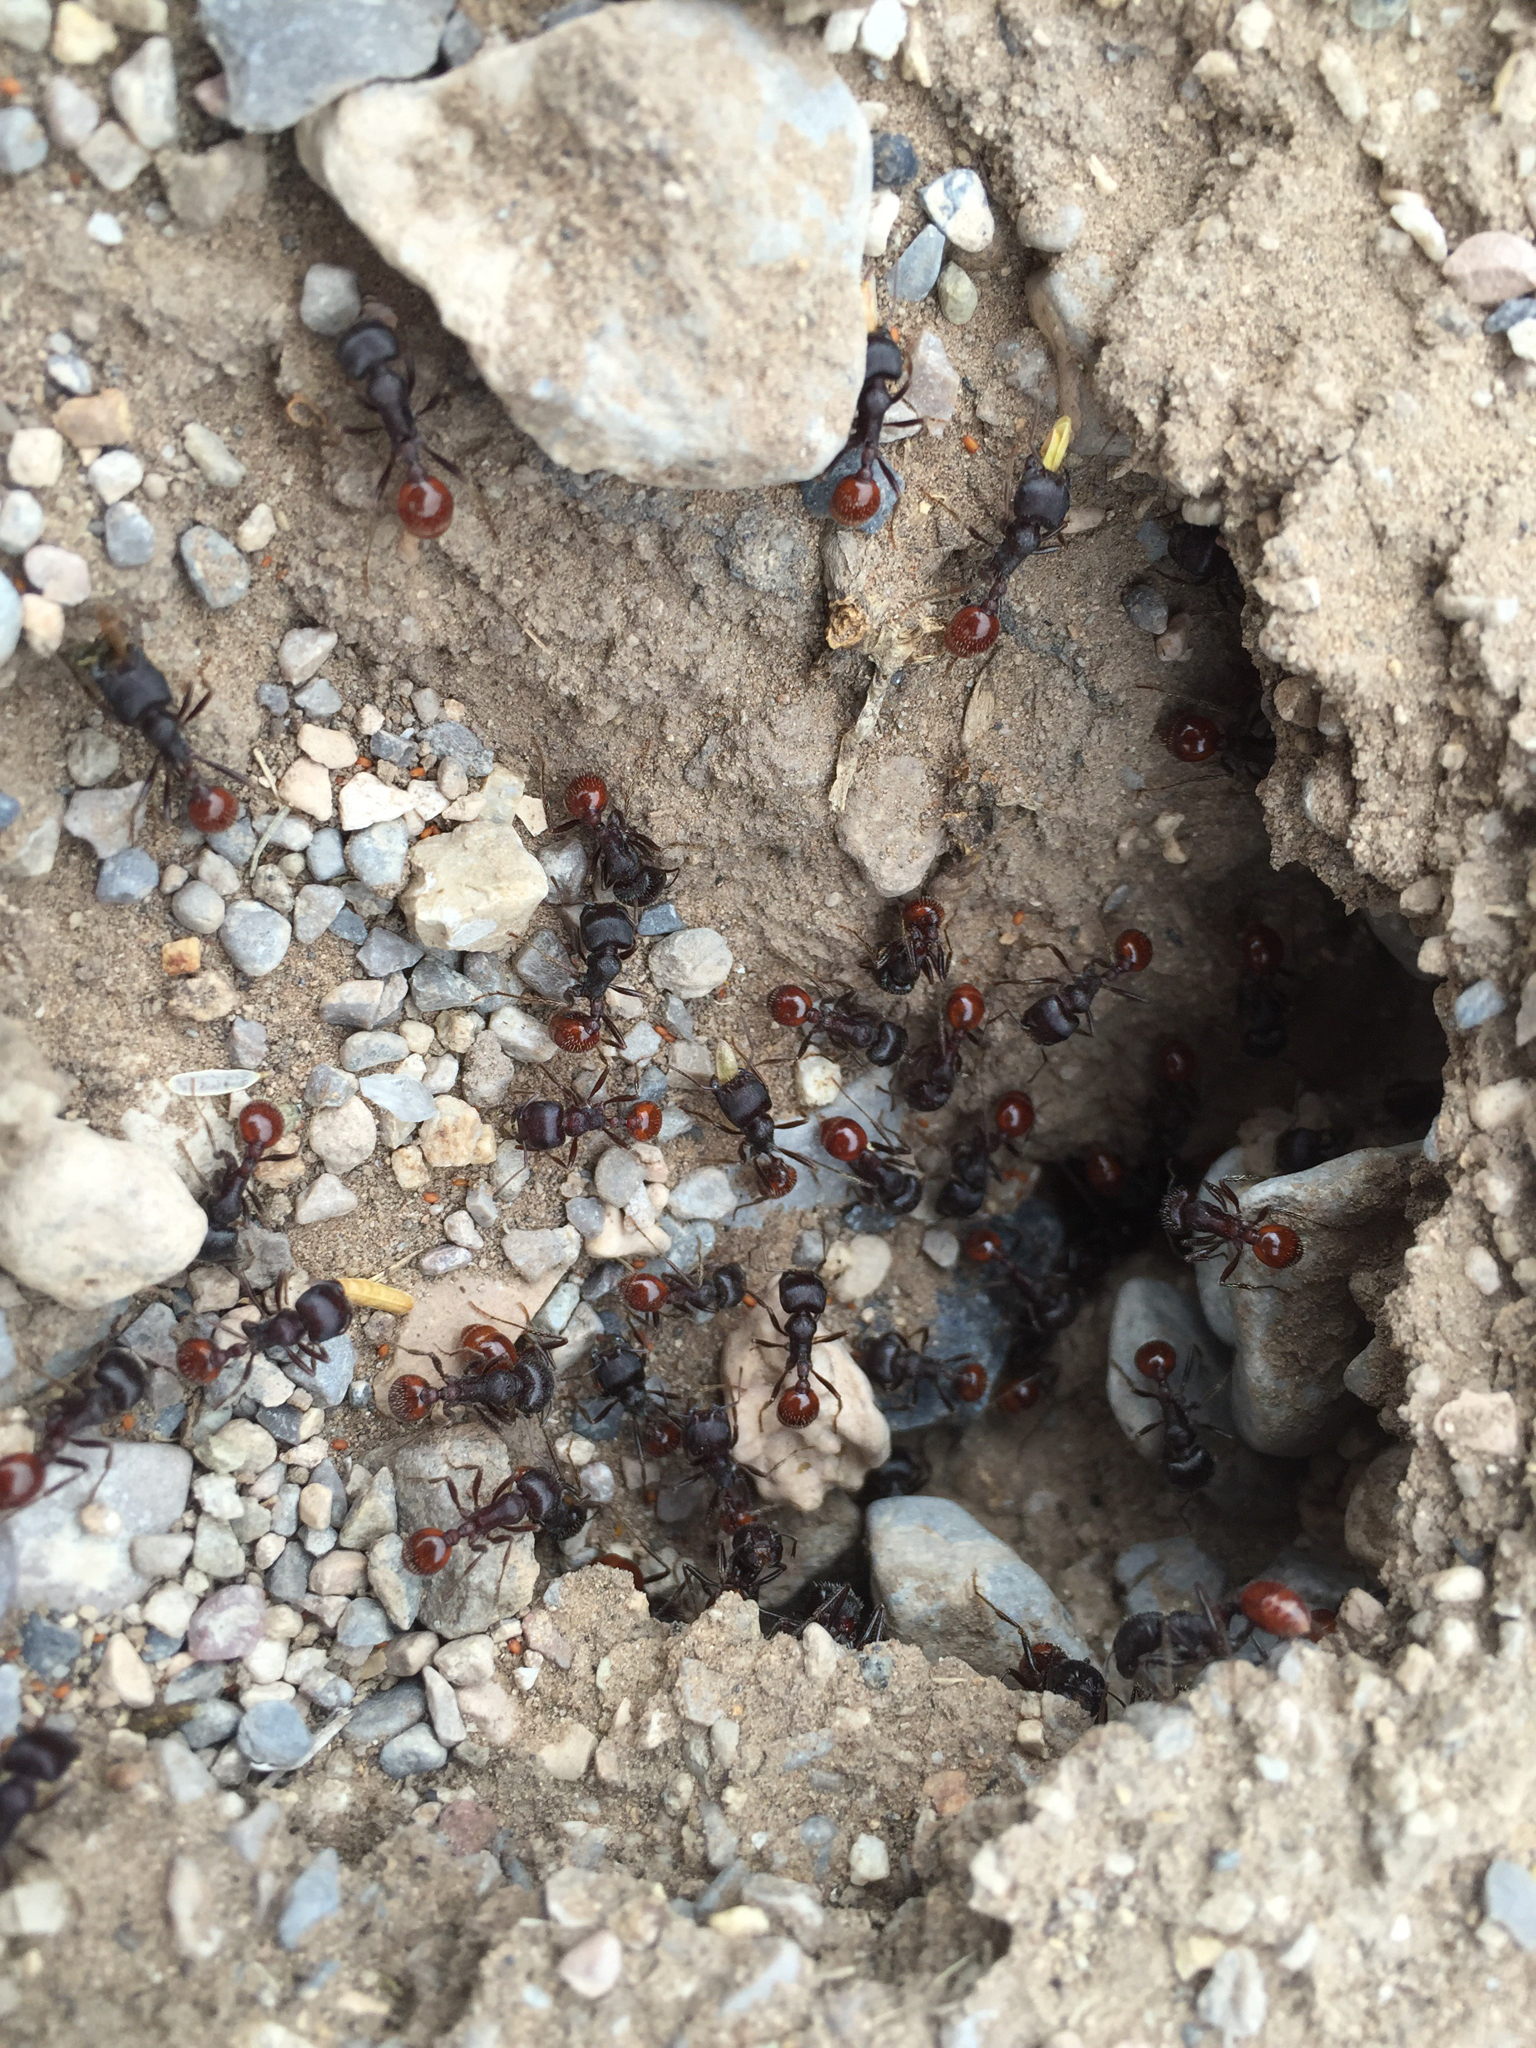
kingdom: Animalia
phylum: Arthropoda
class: Insecta
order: Hymenoptera
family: Formicidae
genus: Pogonomyrmex
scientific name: Pogonomyrmex rugosus
